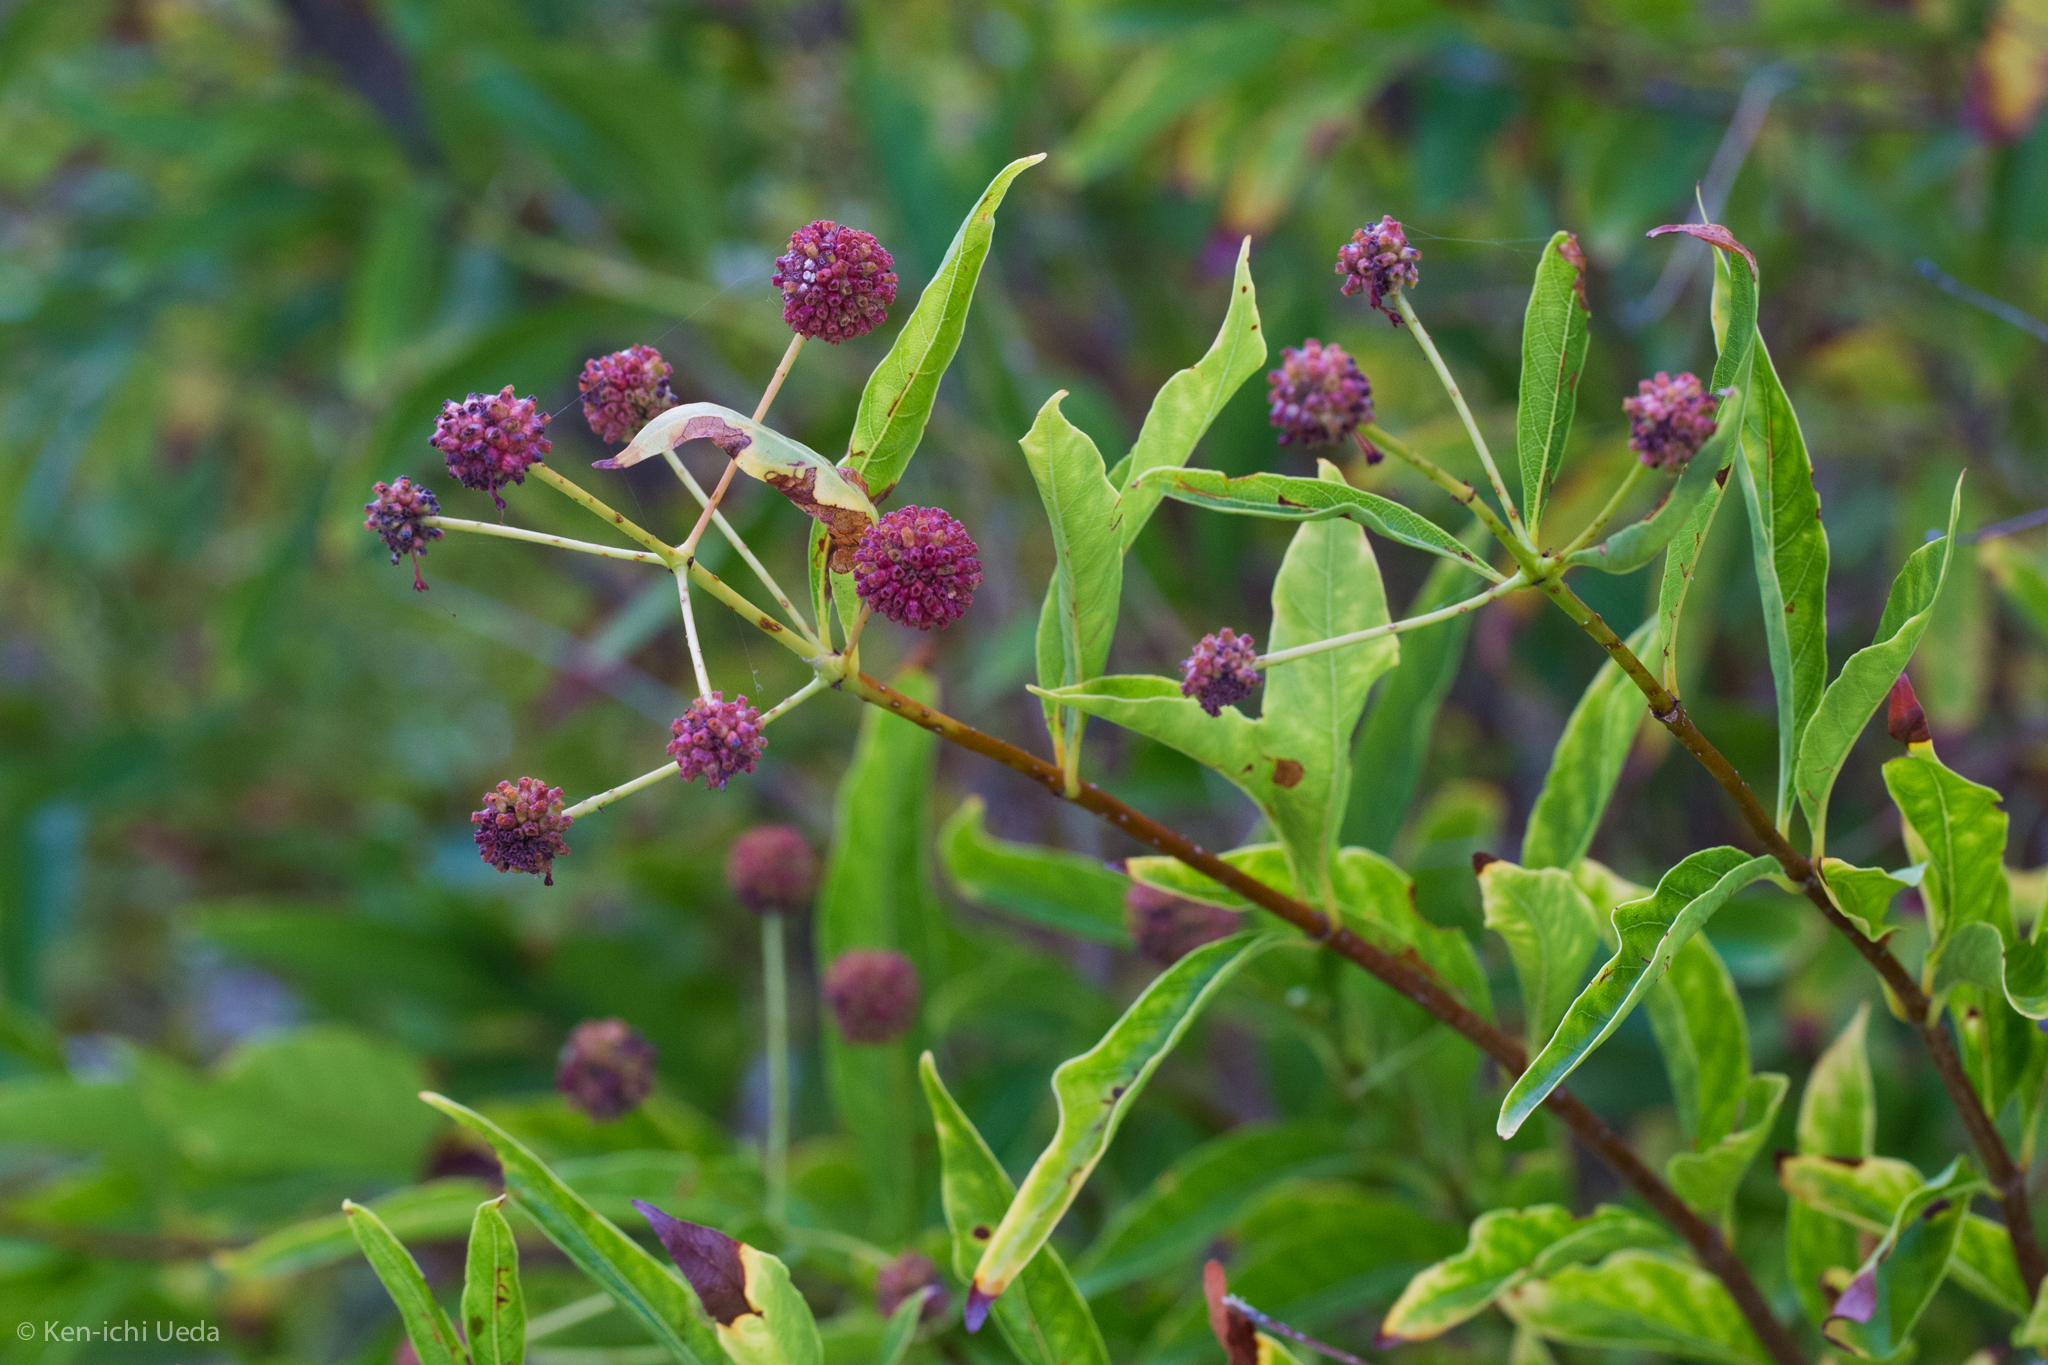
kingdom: Plantae
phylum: Tracheophyta
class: Magnoliopsida
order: Gentianales
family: Rubiaceae
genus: Cephalanthus
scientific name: Cephalanthus occidentalis
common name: Button-willow
